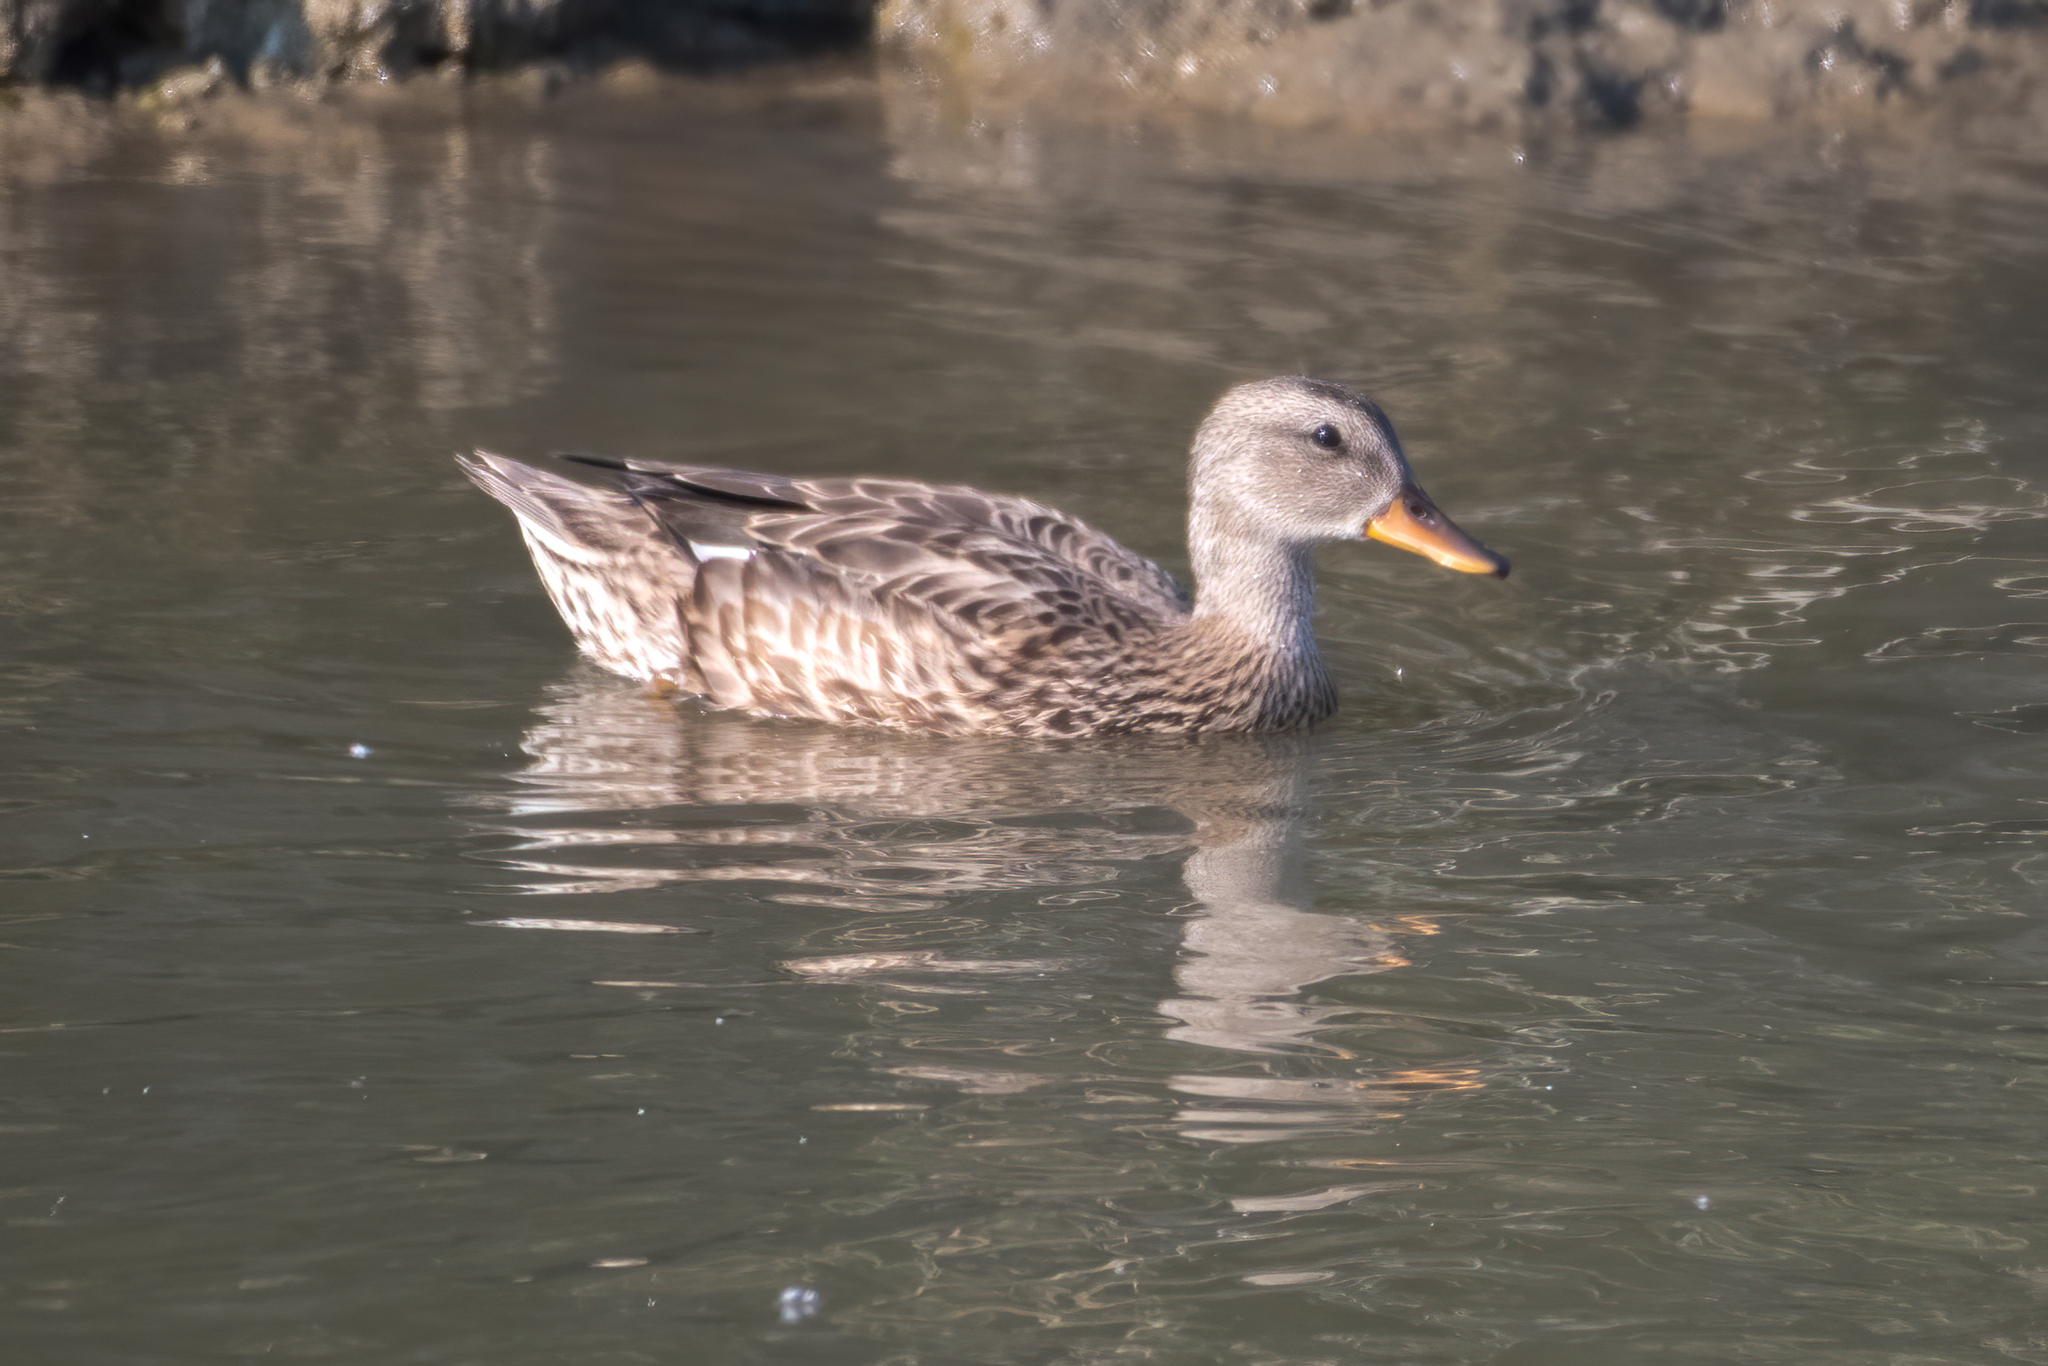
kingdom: Animalia
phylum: Chordata
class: Aves
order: Anseriformes
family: Anatidae
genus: Anas
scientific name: Anas platyrhynchos
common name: Mallard
